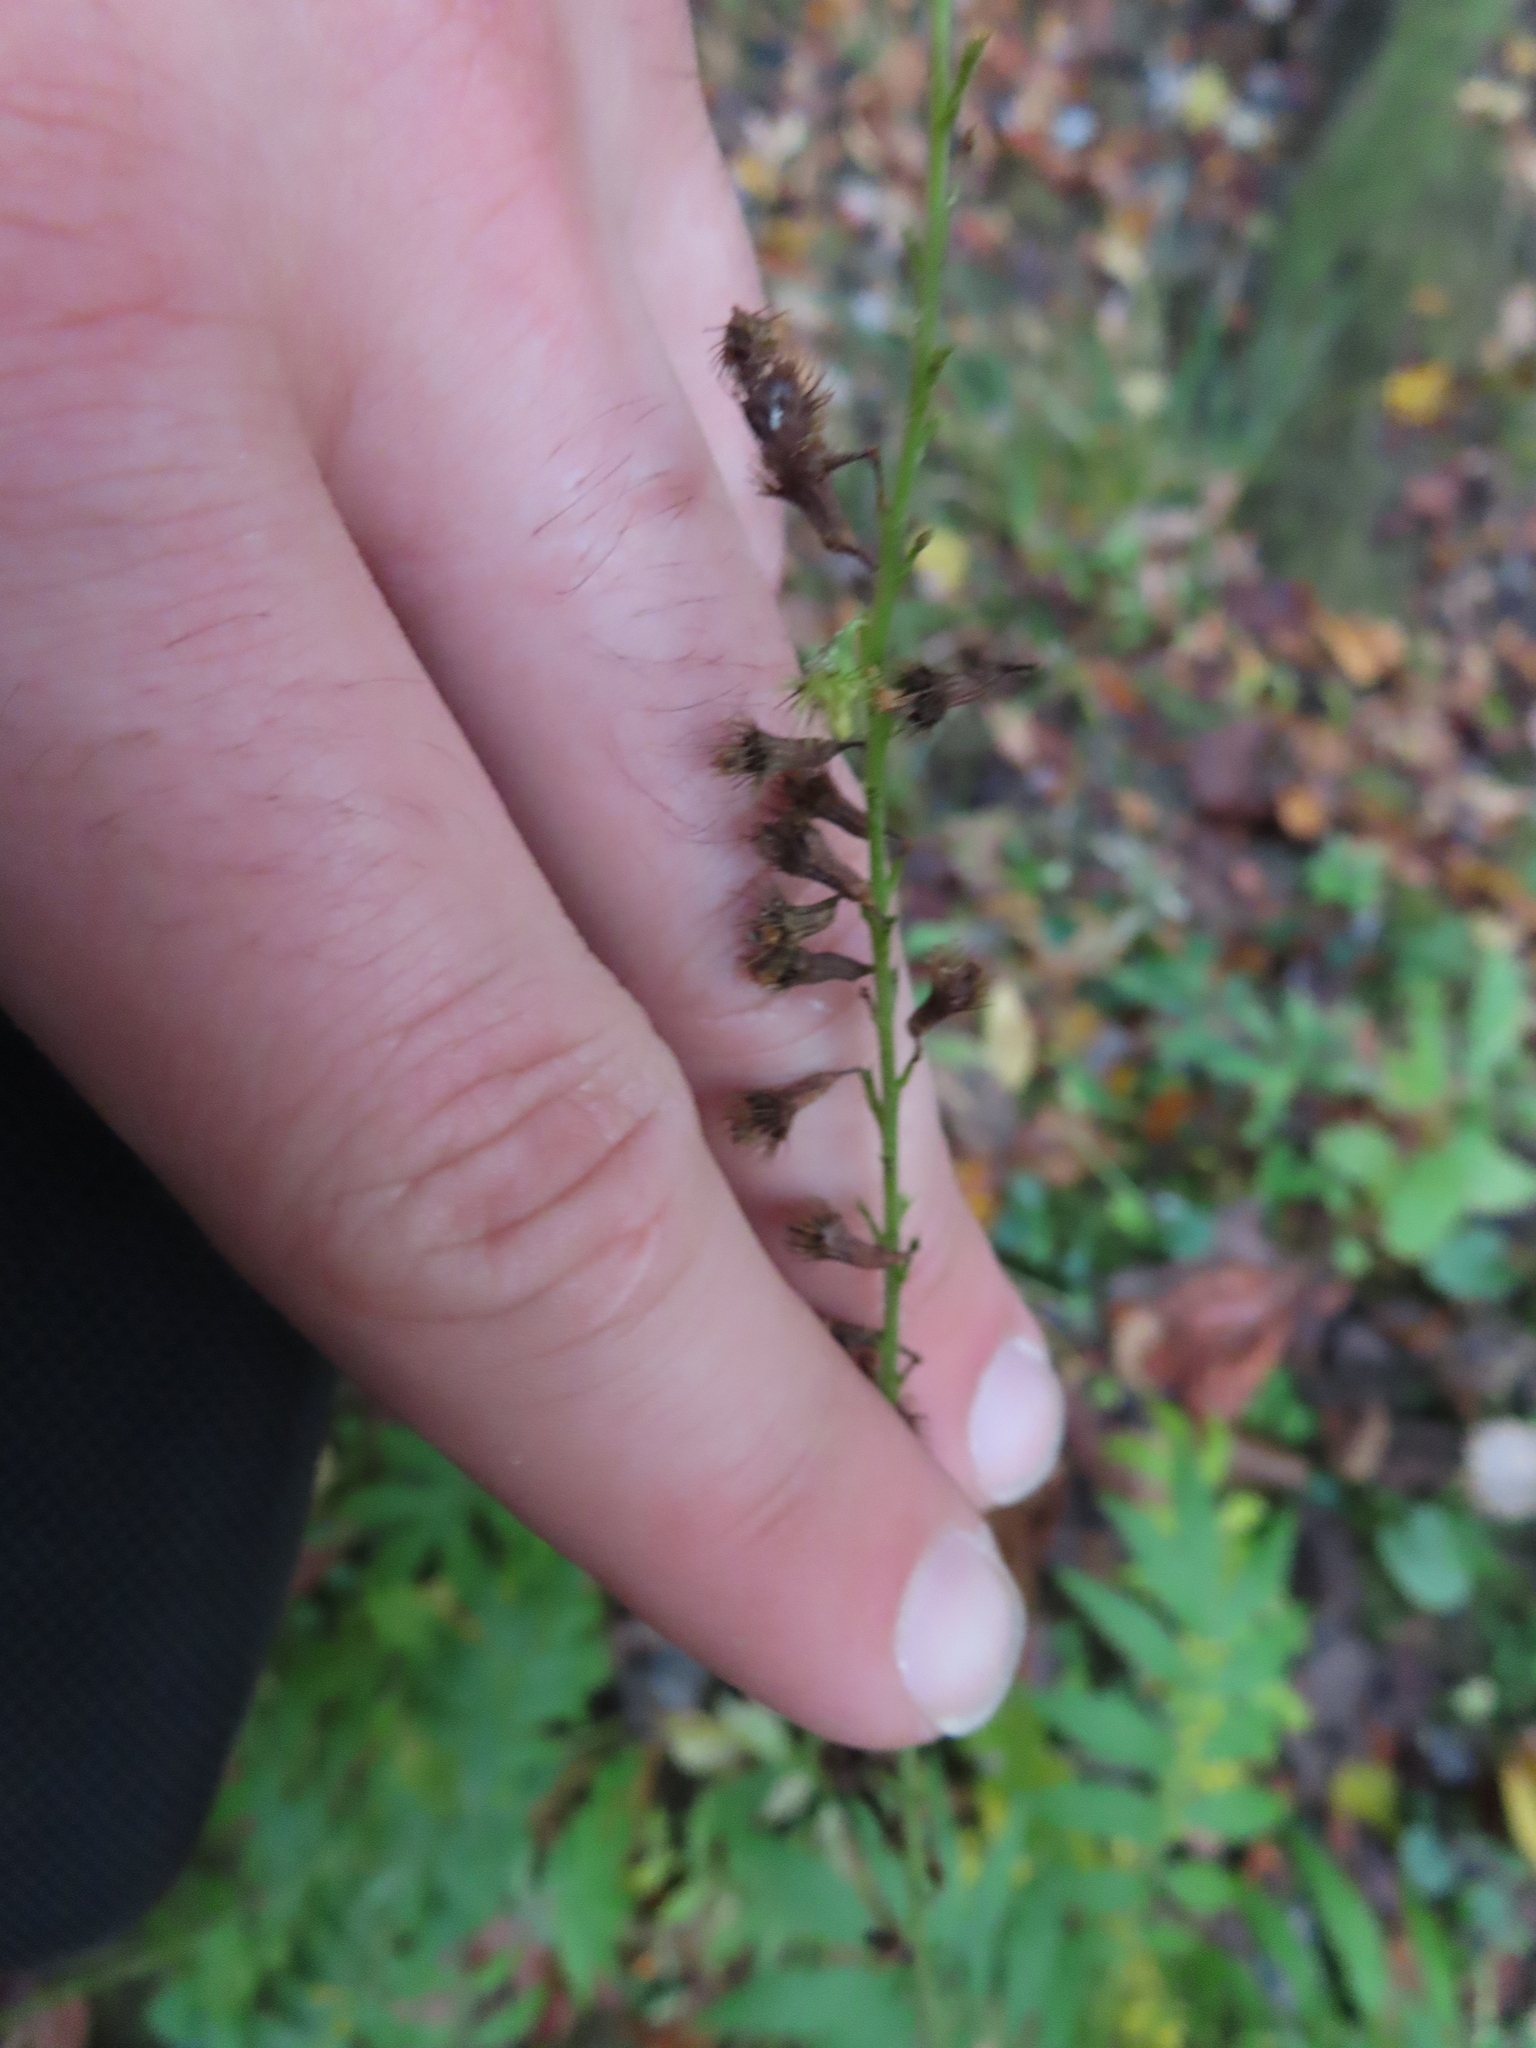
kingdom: Plantae
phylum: Tracheophyta
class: Magnoliopsida
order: Rosales
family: Rosaceae
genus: Agrimonia
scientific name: Agrimonia parviflora
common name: Harvest-lice
